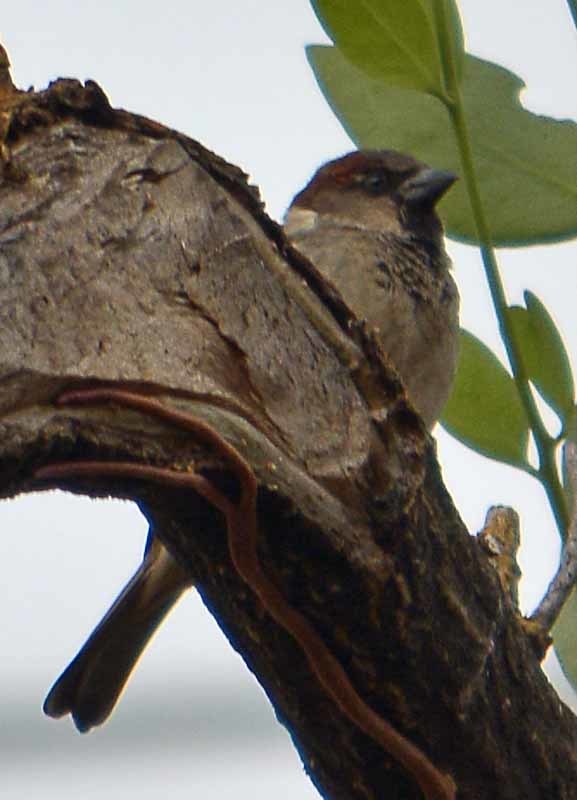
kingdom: Animalia
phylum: Chordata
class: Aves
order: Passeriformes
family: Passeridae
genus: Passer
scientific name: Passer domesticus
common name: House sparrow
